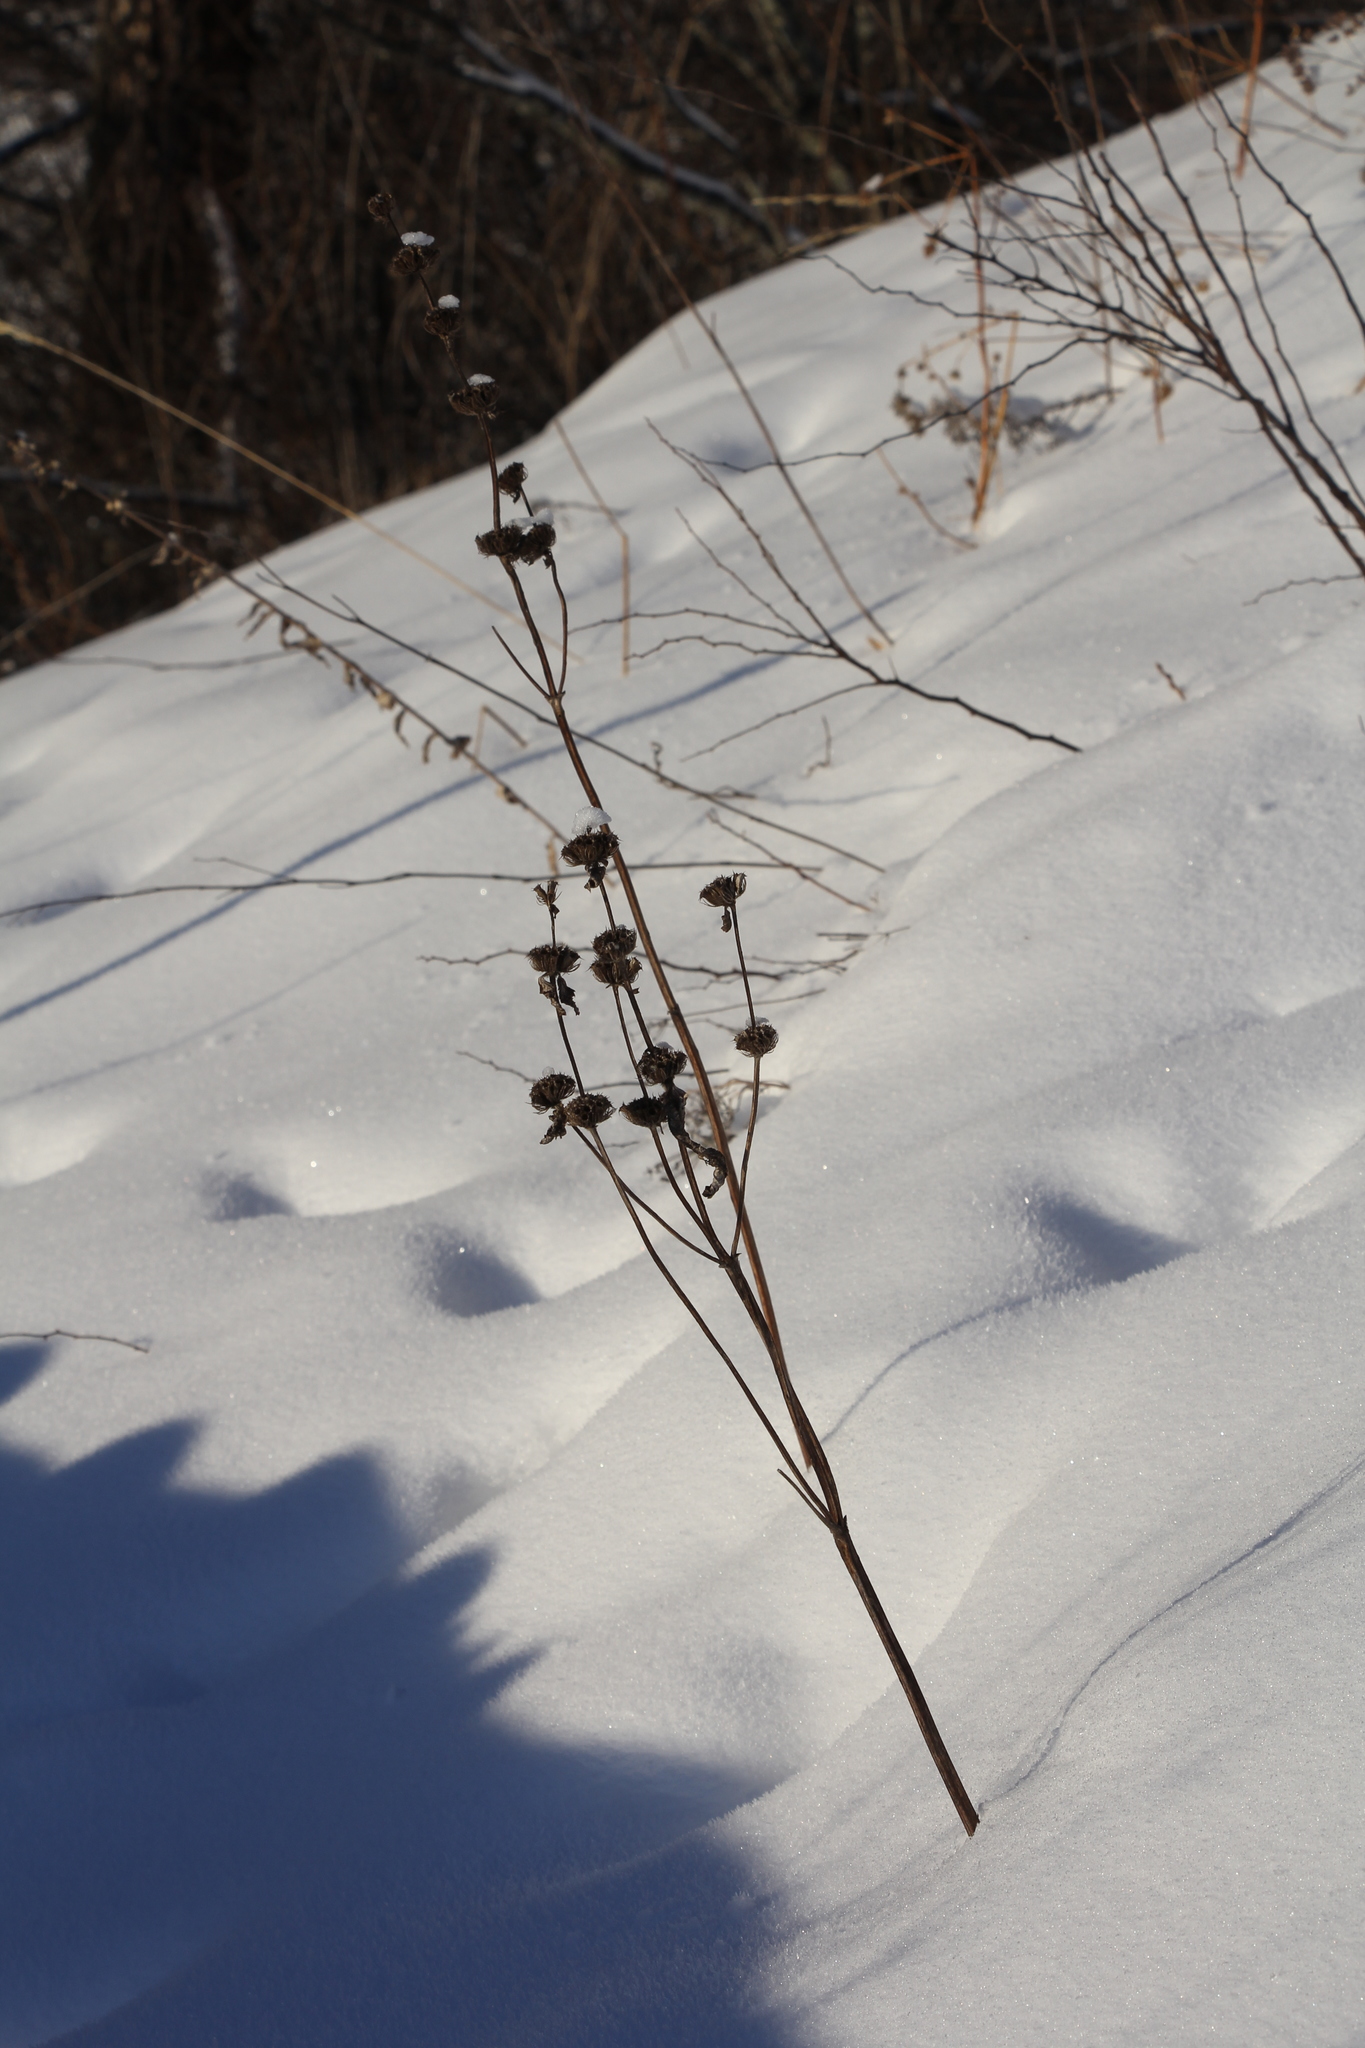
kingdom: Plantae
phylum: Tracheophyta
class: Magnoliopsida
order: Lamiales
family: Lamiaceae
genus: Phlomoides
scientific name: Phlomoides tuberosa
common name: Tuberous jerusalem sage
